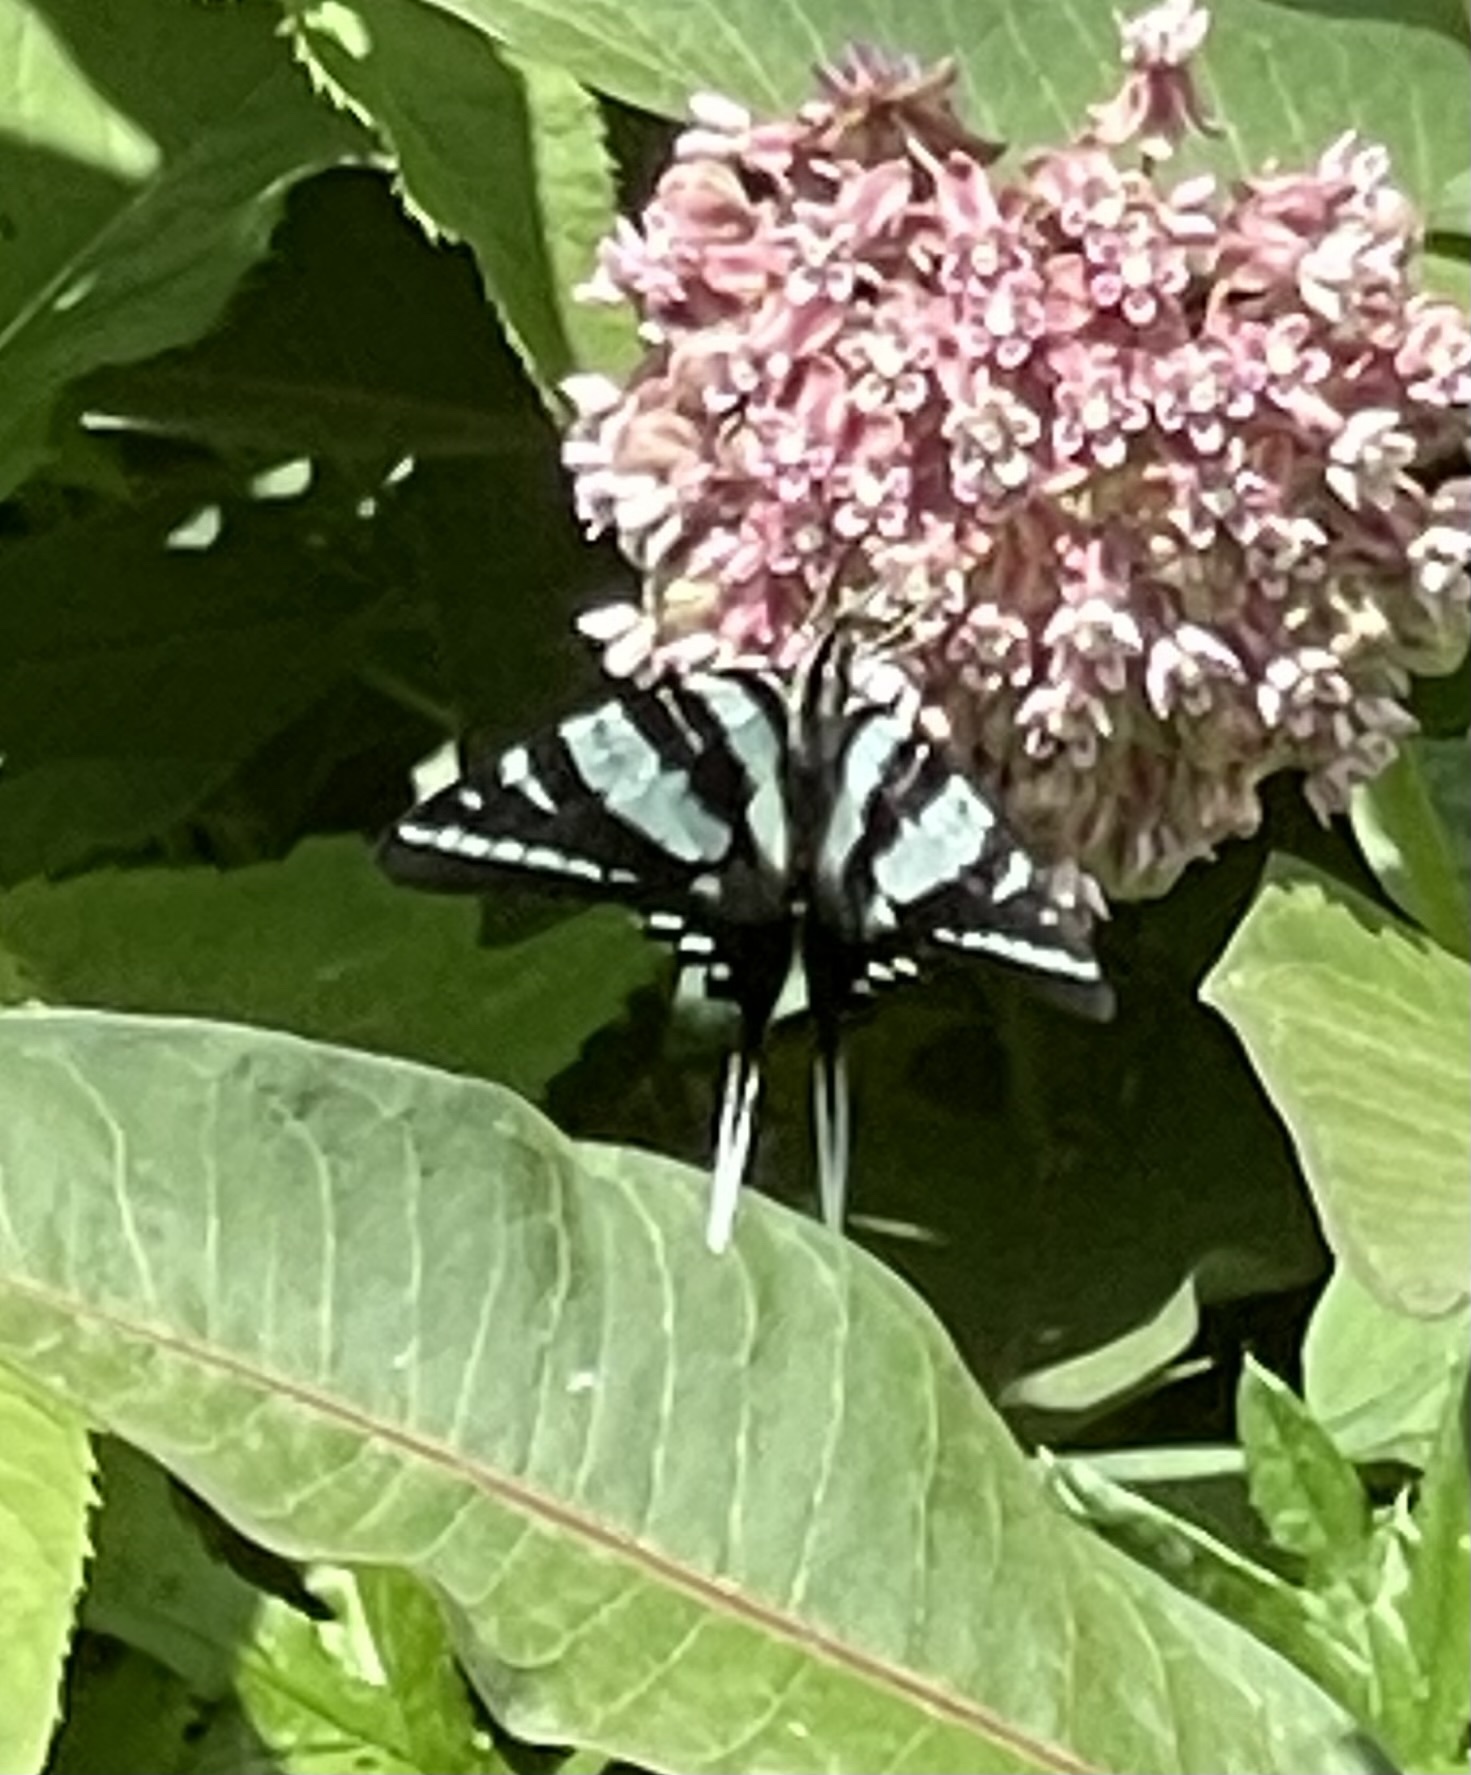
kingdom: Animalia
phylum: Arthropoda
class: Insecta
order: Lepidoptera
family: Papilionidae
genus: Protographium
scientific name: Protographium marcellus
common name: Zebra swallowtail
